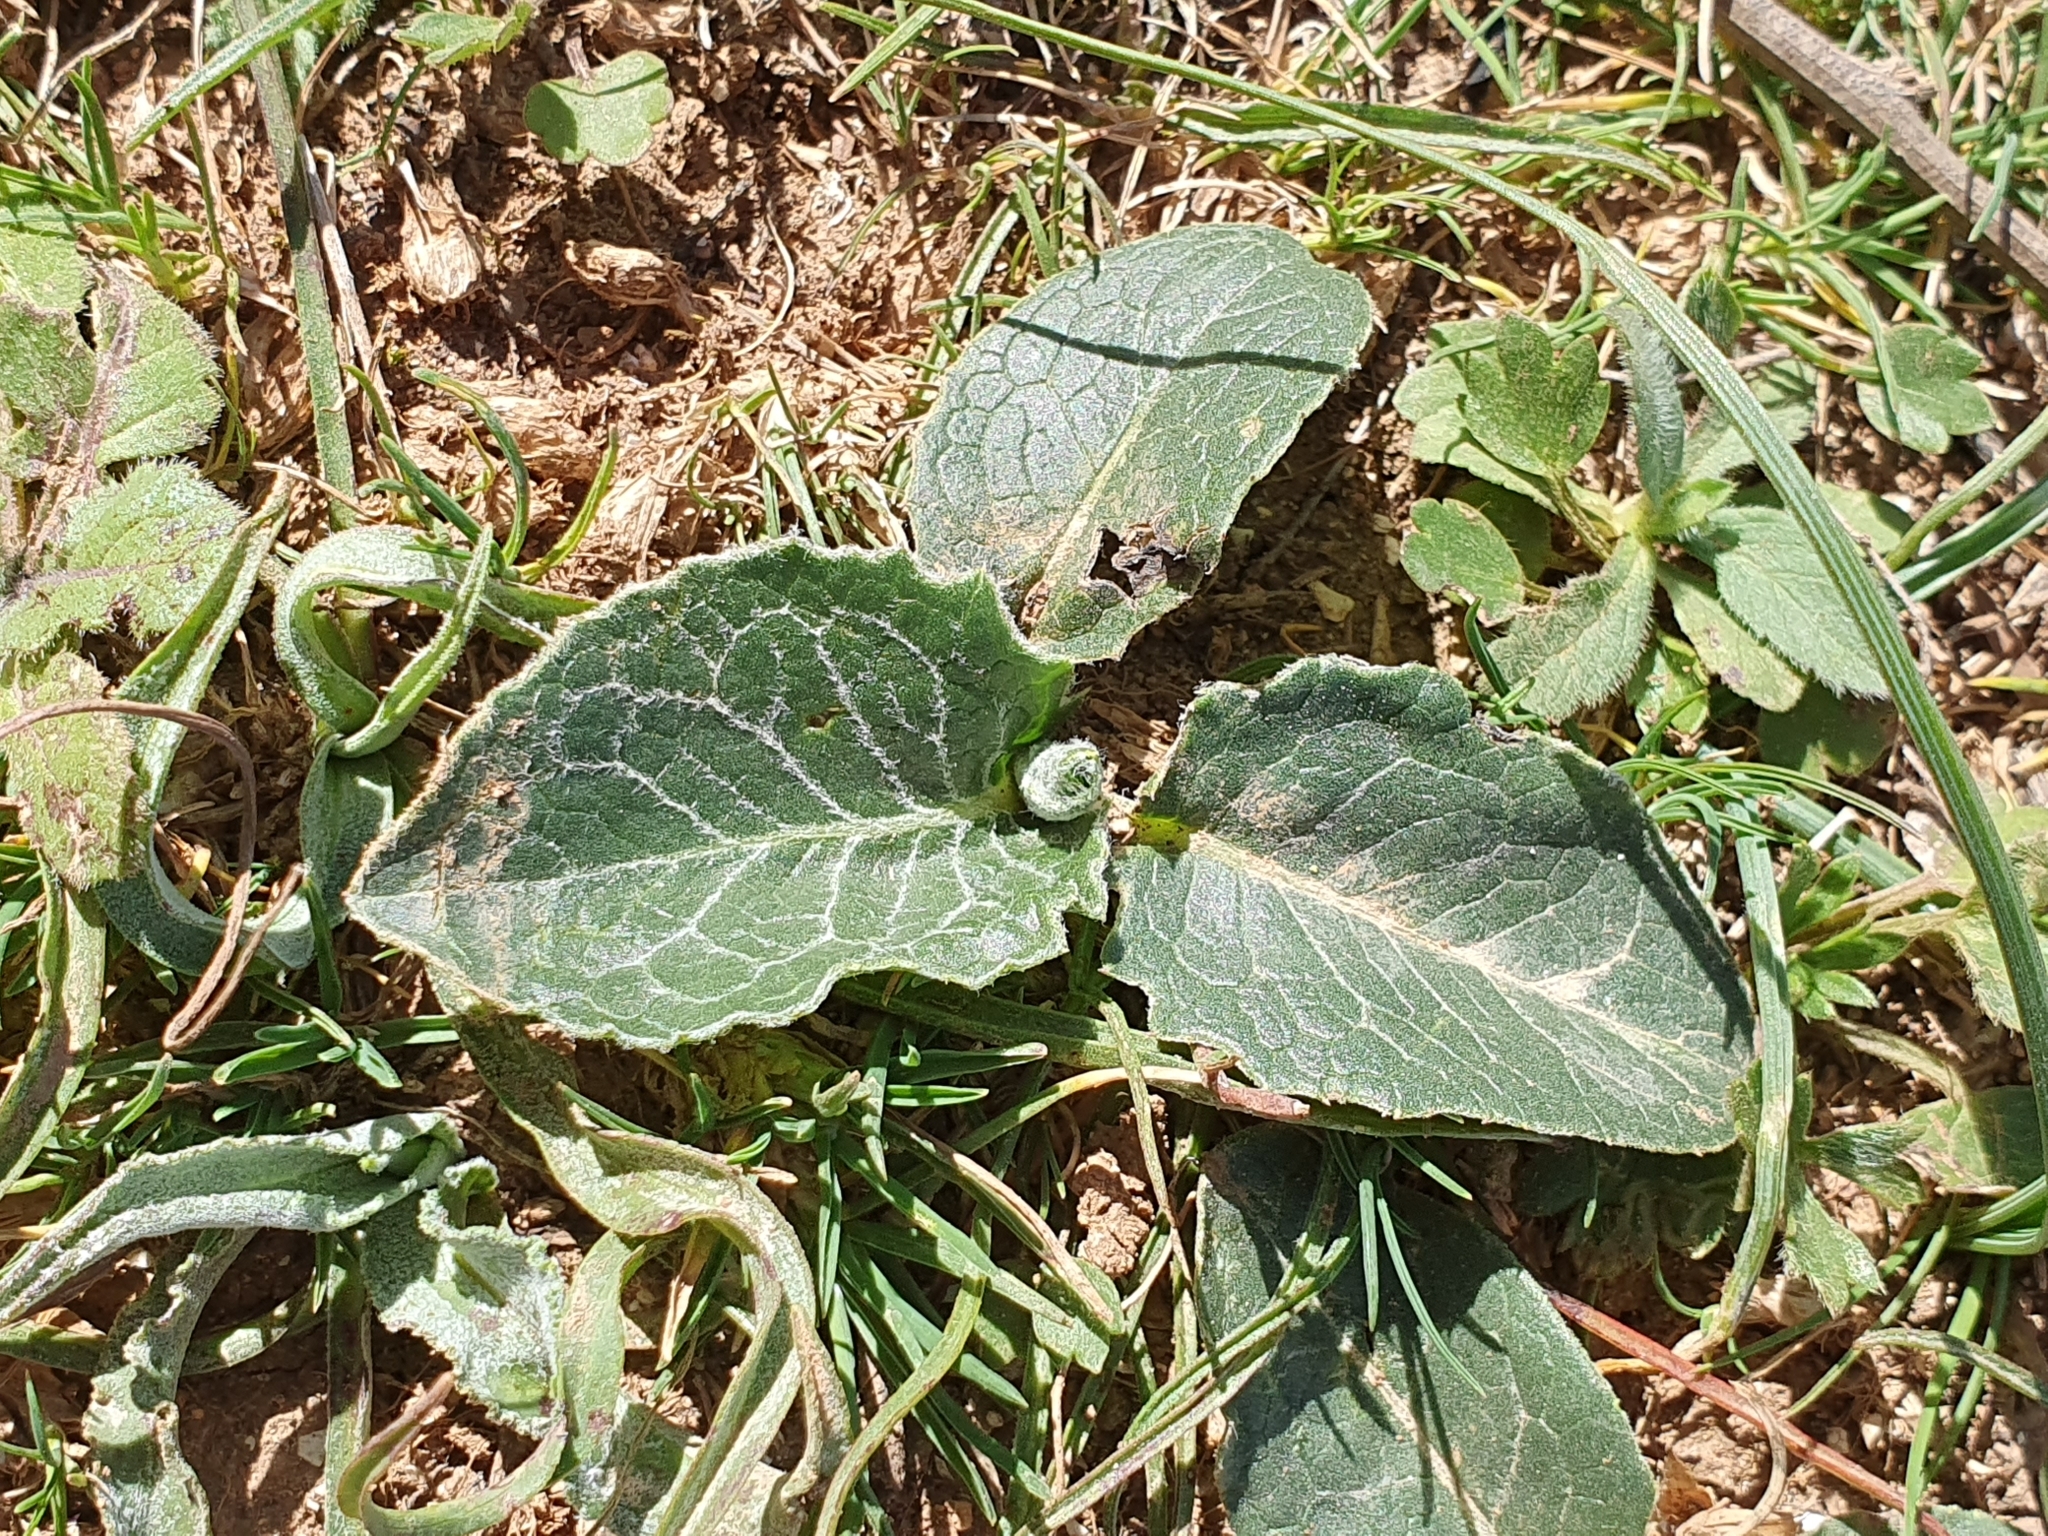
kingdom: Plantae
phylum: Tracheophyta
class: Magnoliopsida
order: Asterales
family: Asteraceae
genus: Klasea
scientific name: Klasea pinnatifida
